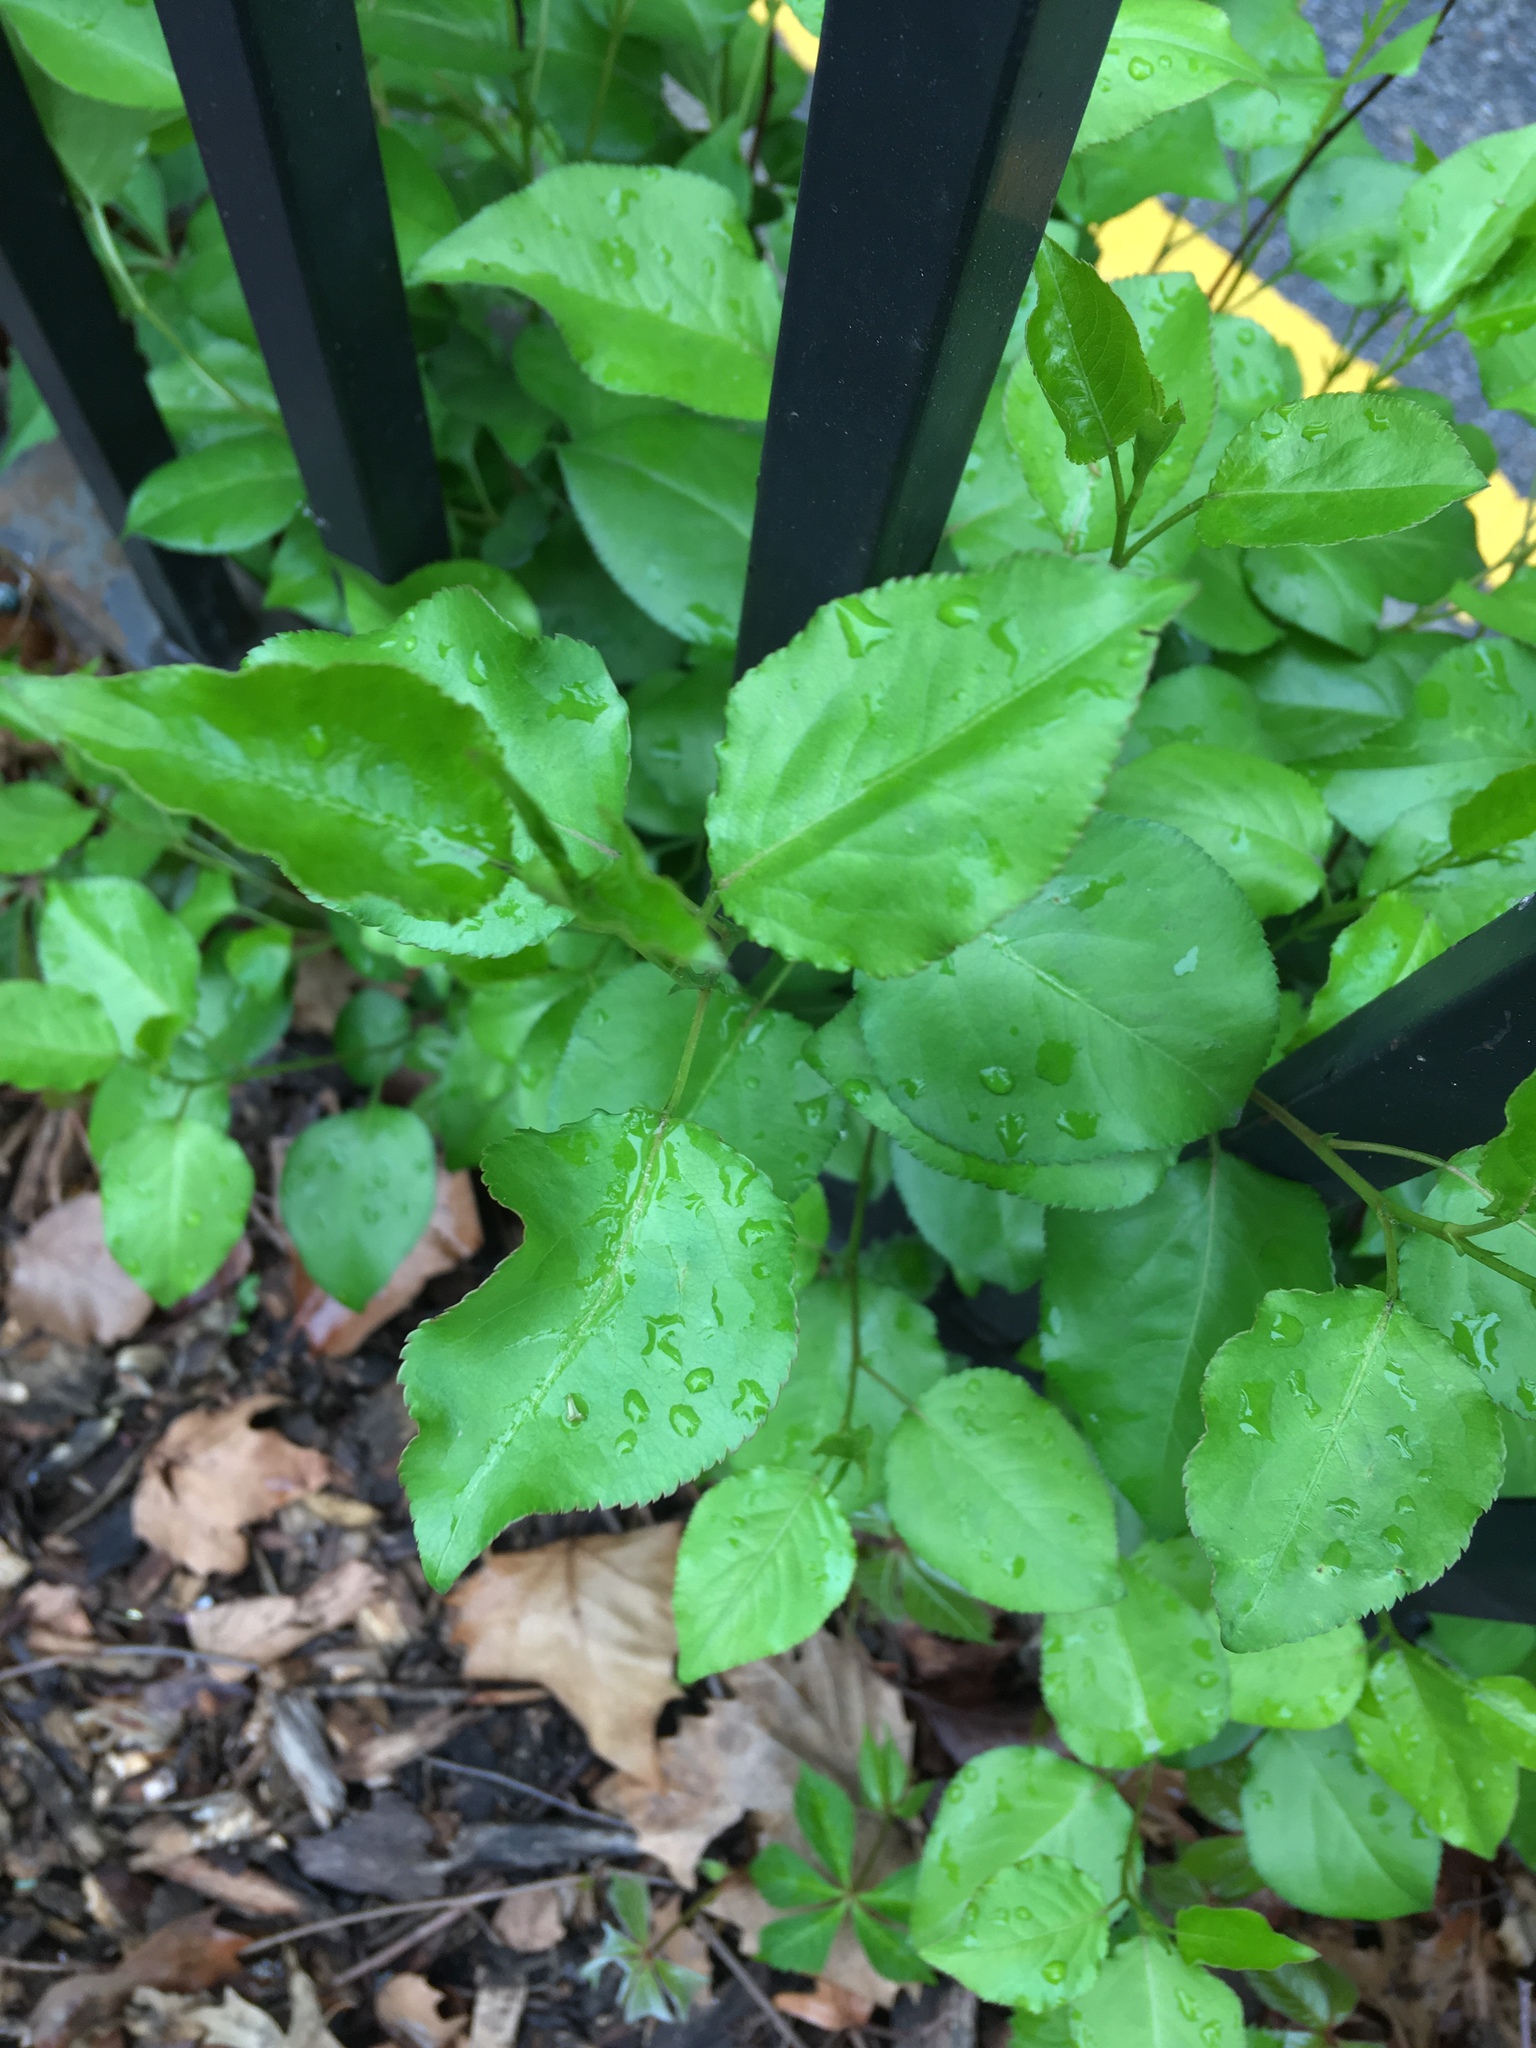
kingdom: Plantae
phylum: Tracheophyta
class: Magnoliopsida
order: Rosales
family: Rosaceae
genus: Pyrus
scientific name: Pyrus calleryana
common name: Callery pear
